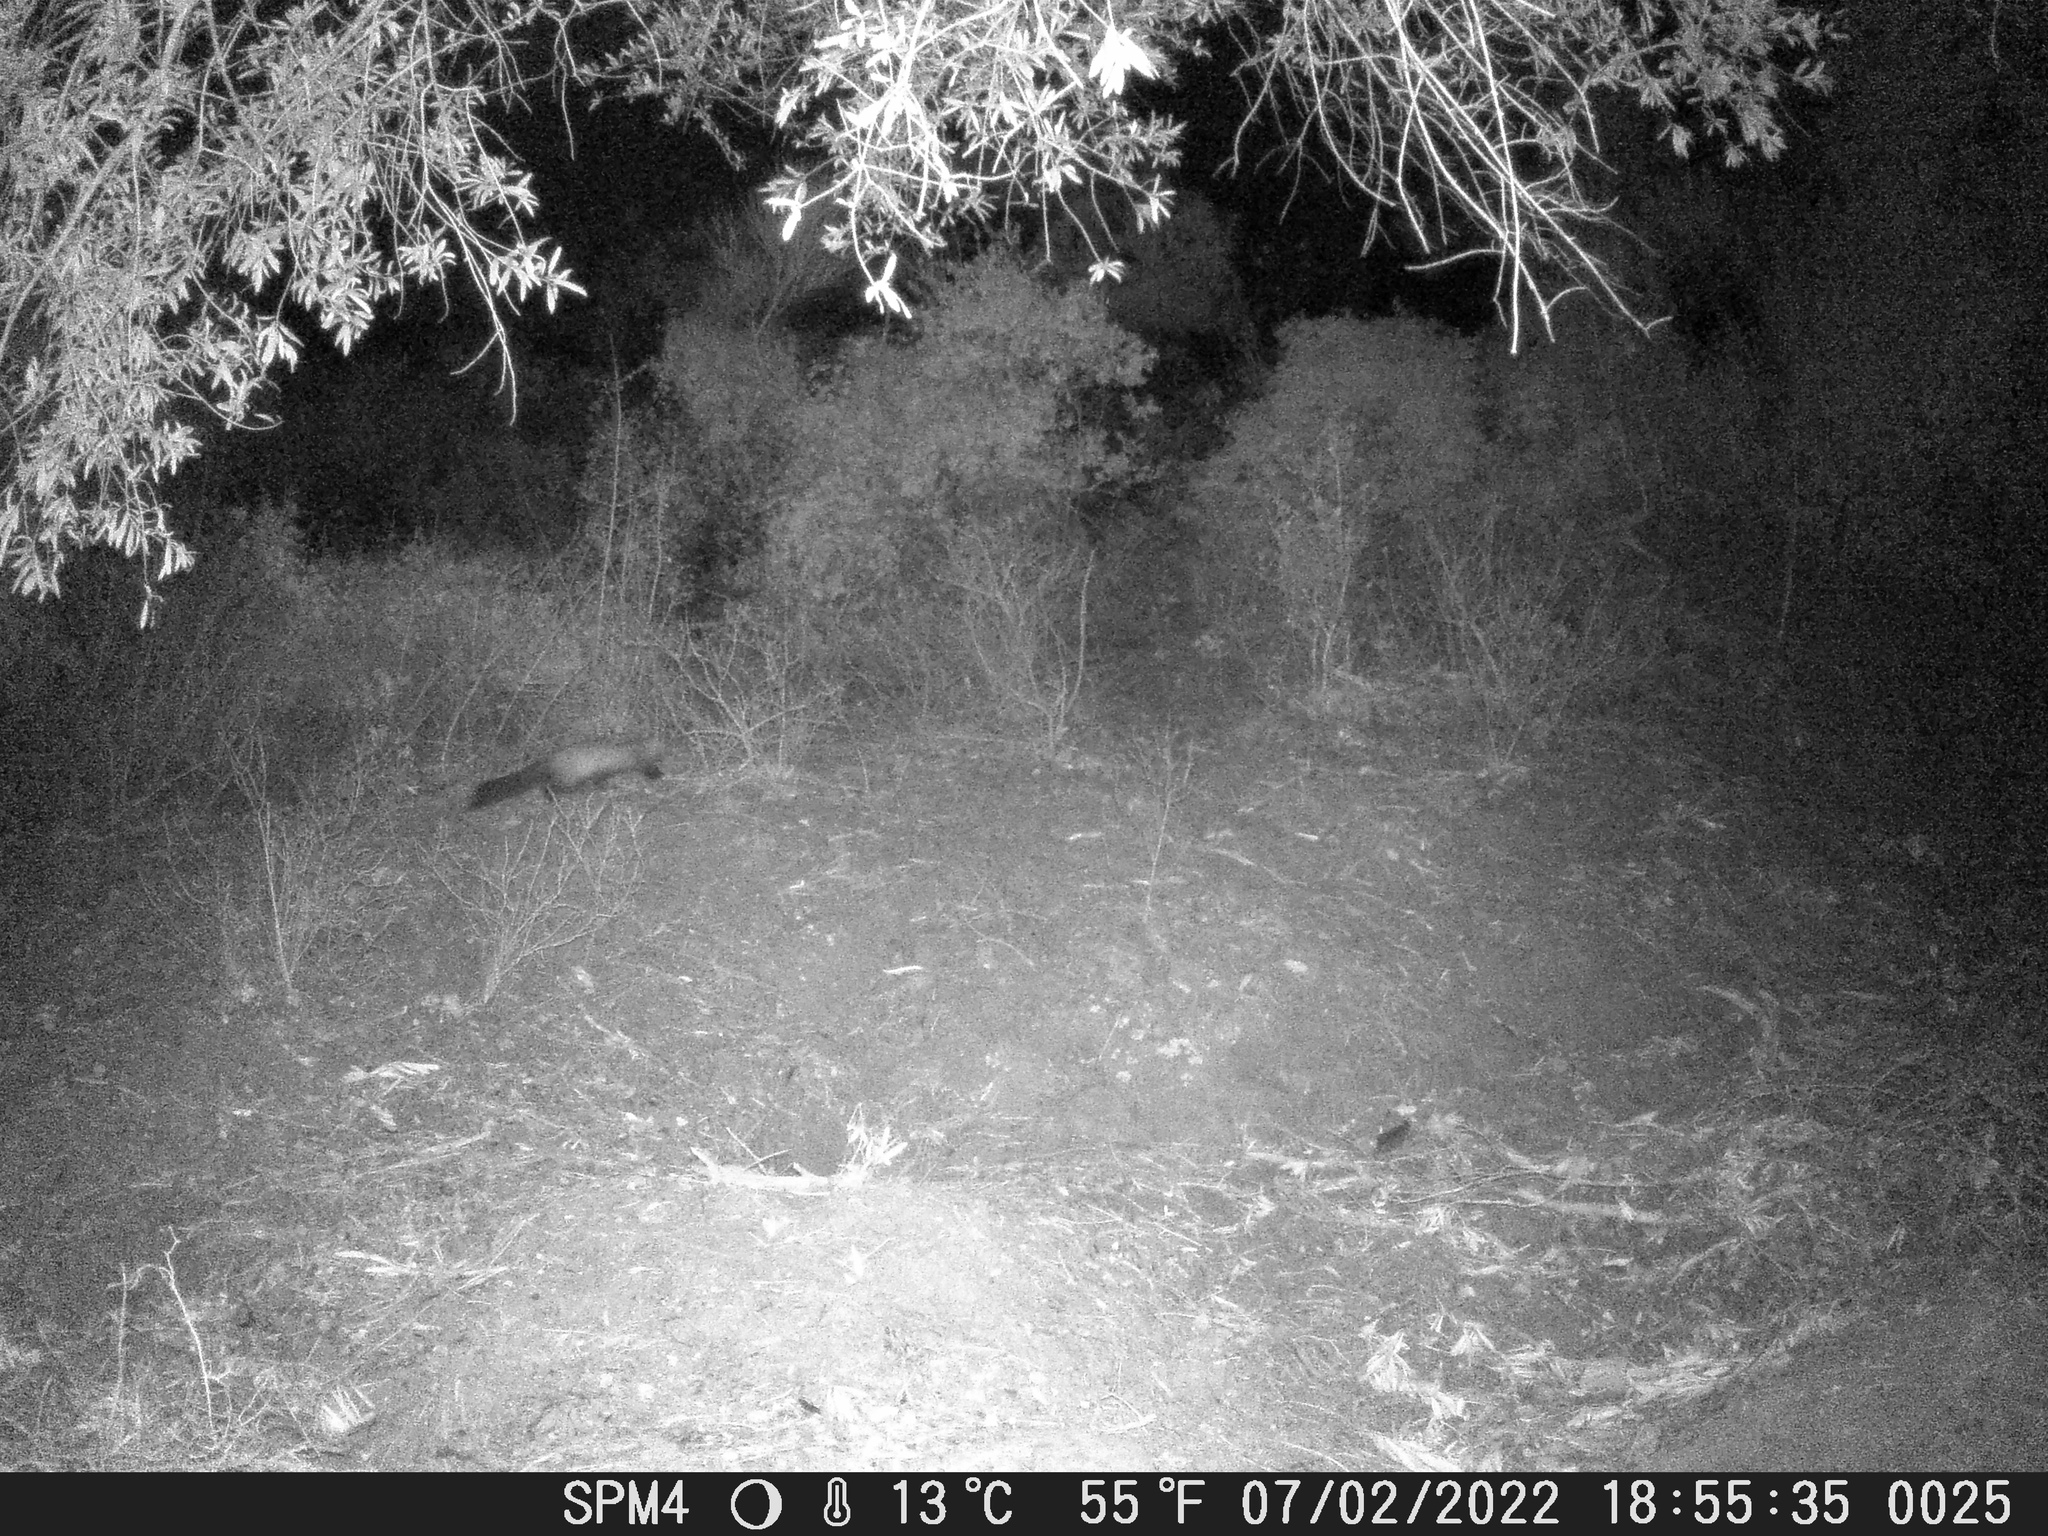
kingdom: Animalia
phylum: Chordata
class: Mammalia
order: Carnivora
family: Mustelidae
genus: Martes
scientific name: Martes foina
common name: Beech marten
